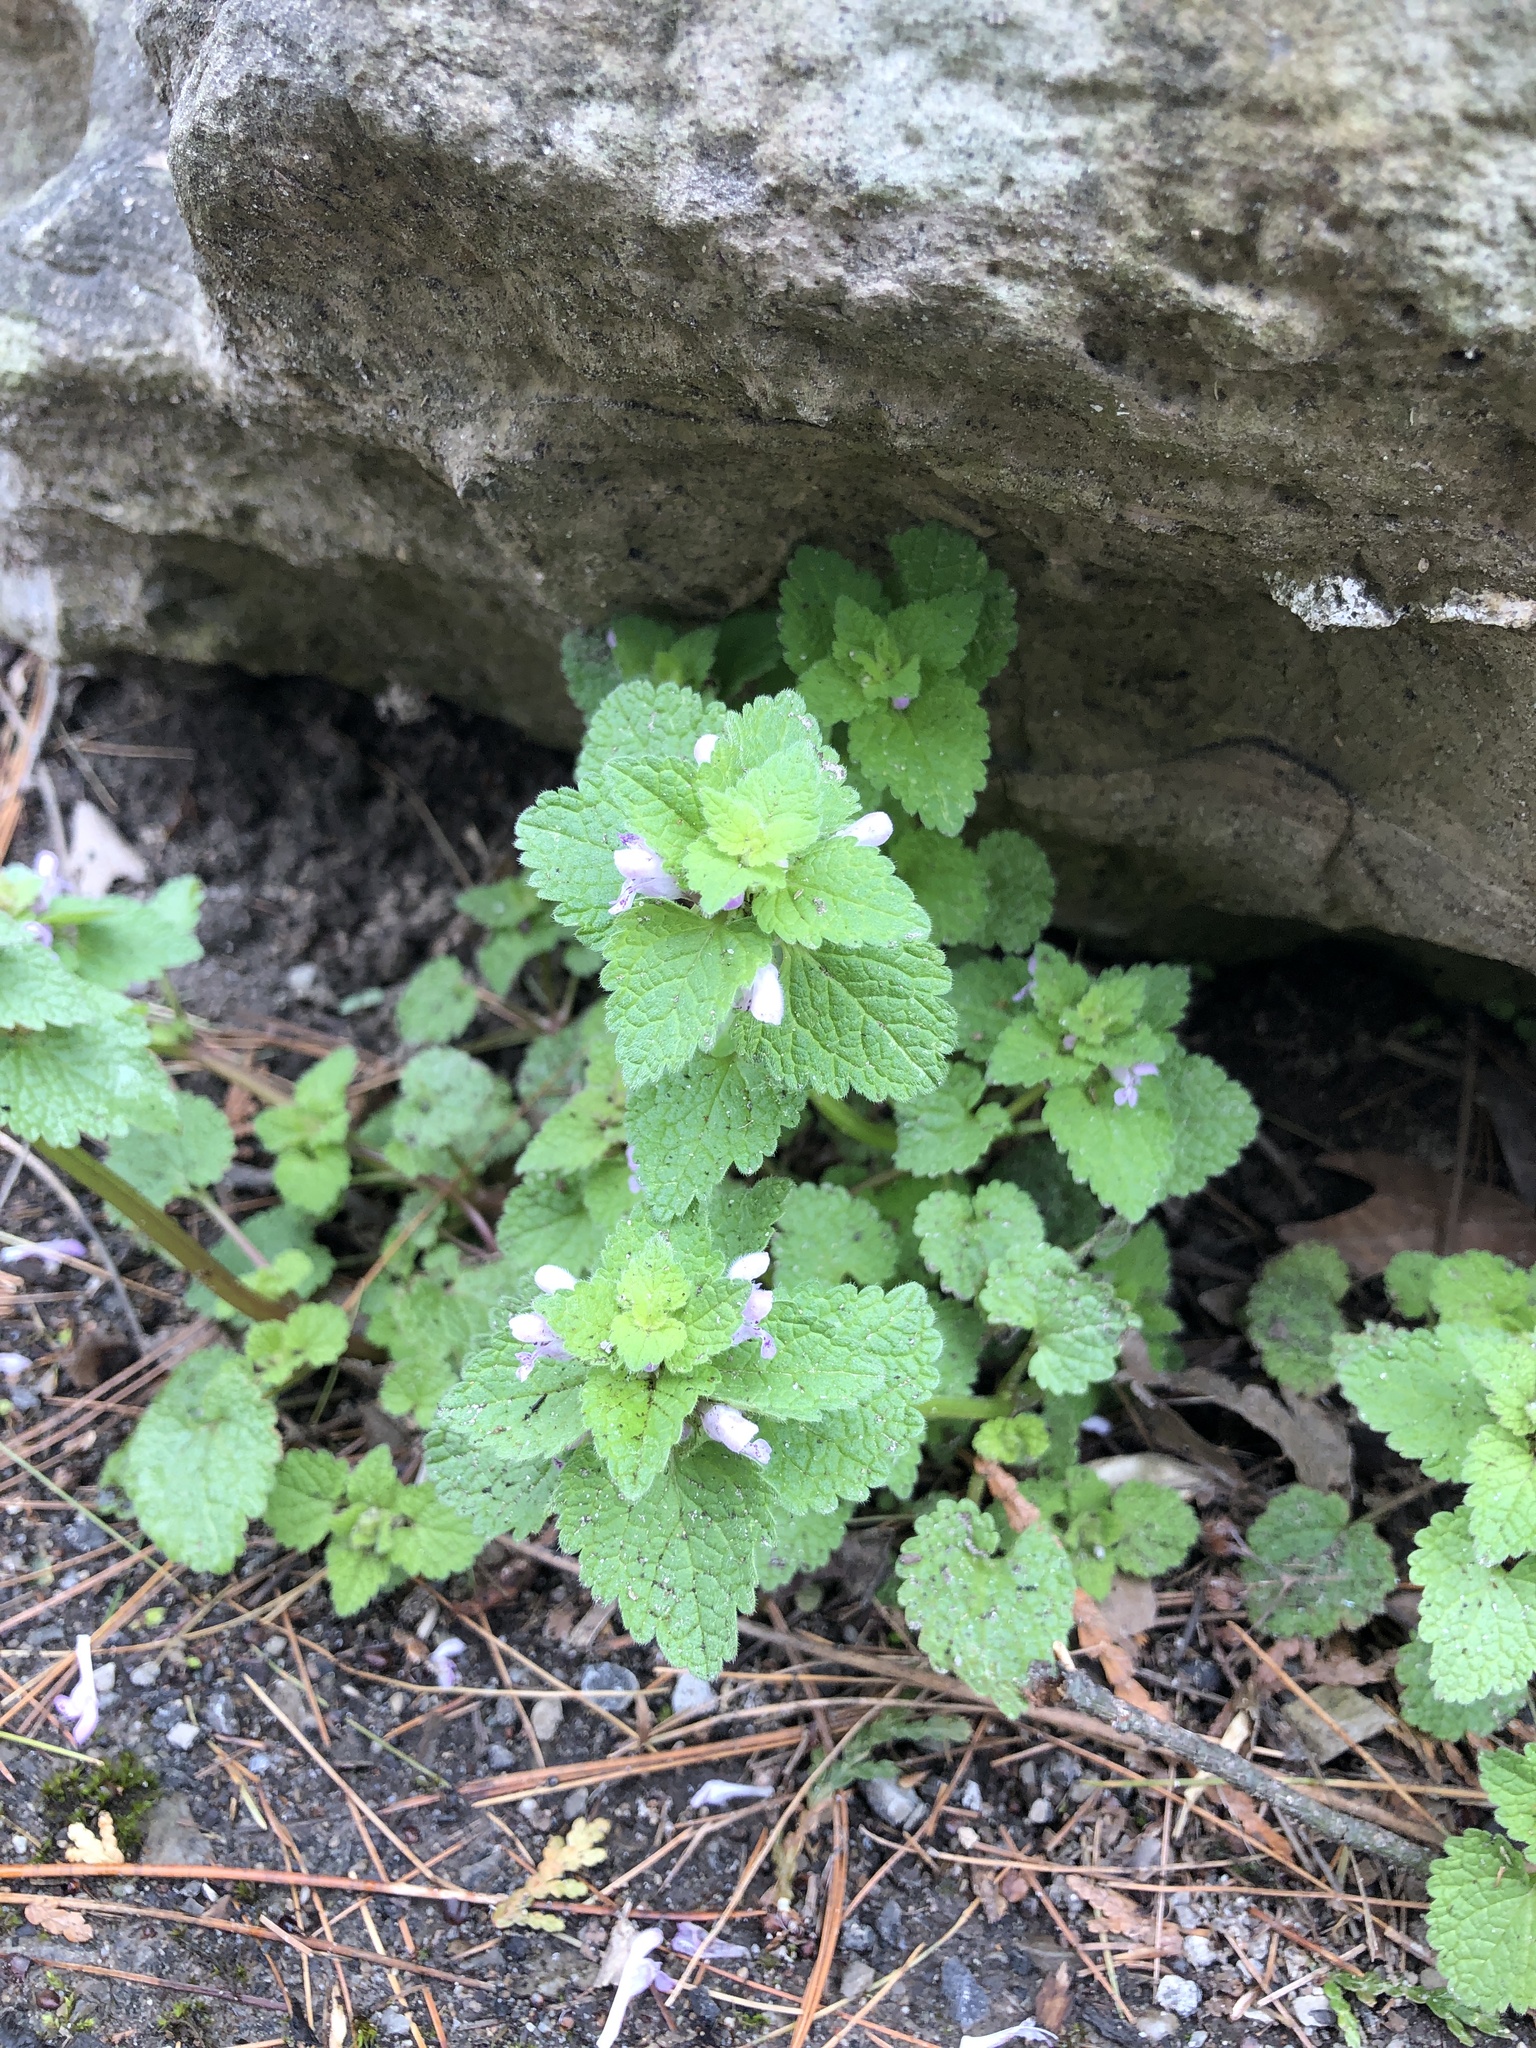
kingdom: Plantae
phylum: Tracheophyta
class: Magnoliopsida
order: Lamiales
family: Lamiaceae
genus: Lamium
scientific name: Lamium purpureum
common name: Red dead-nettle
